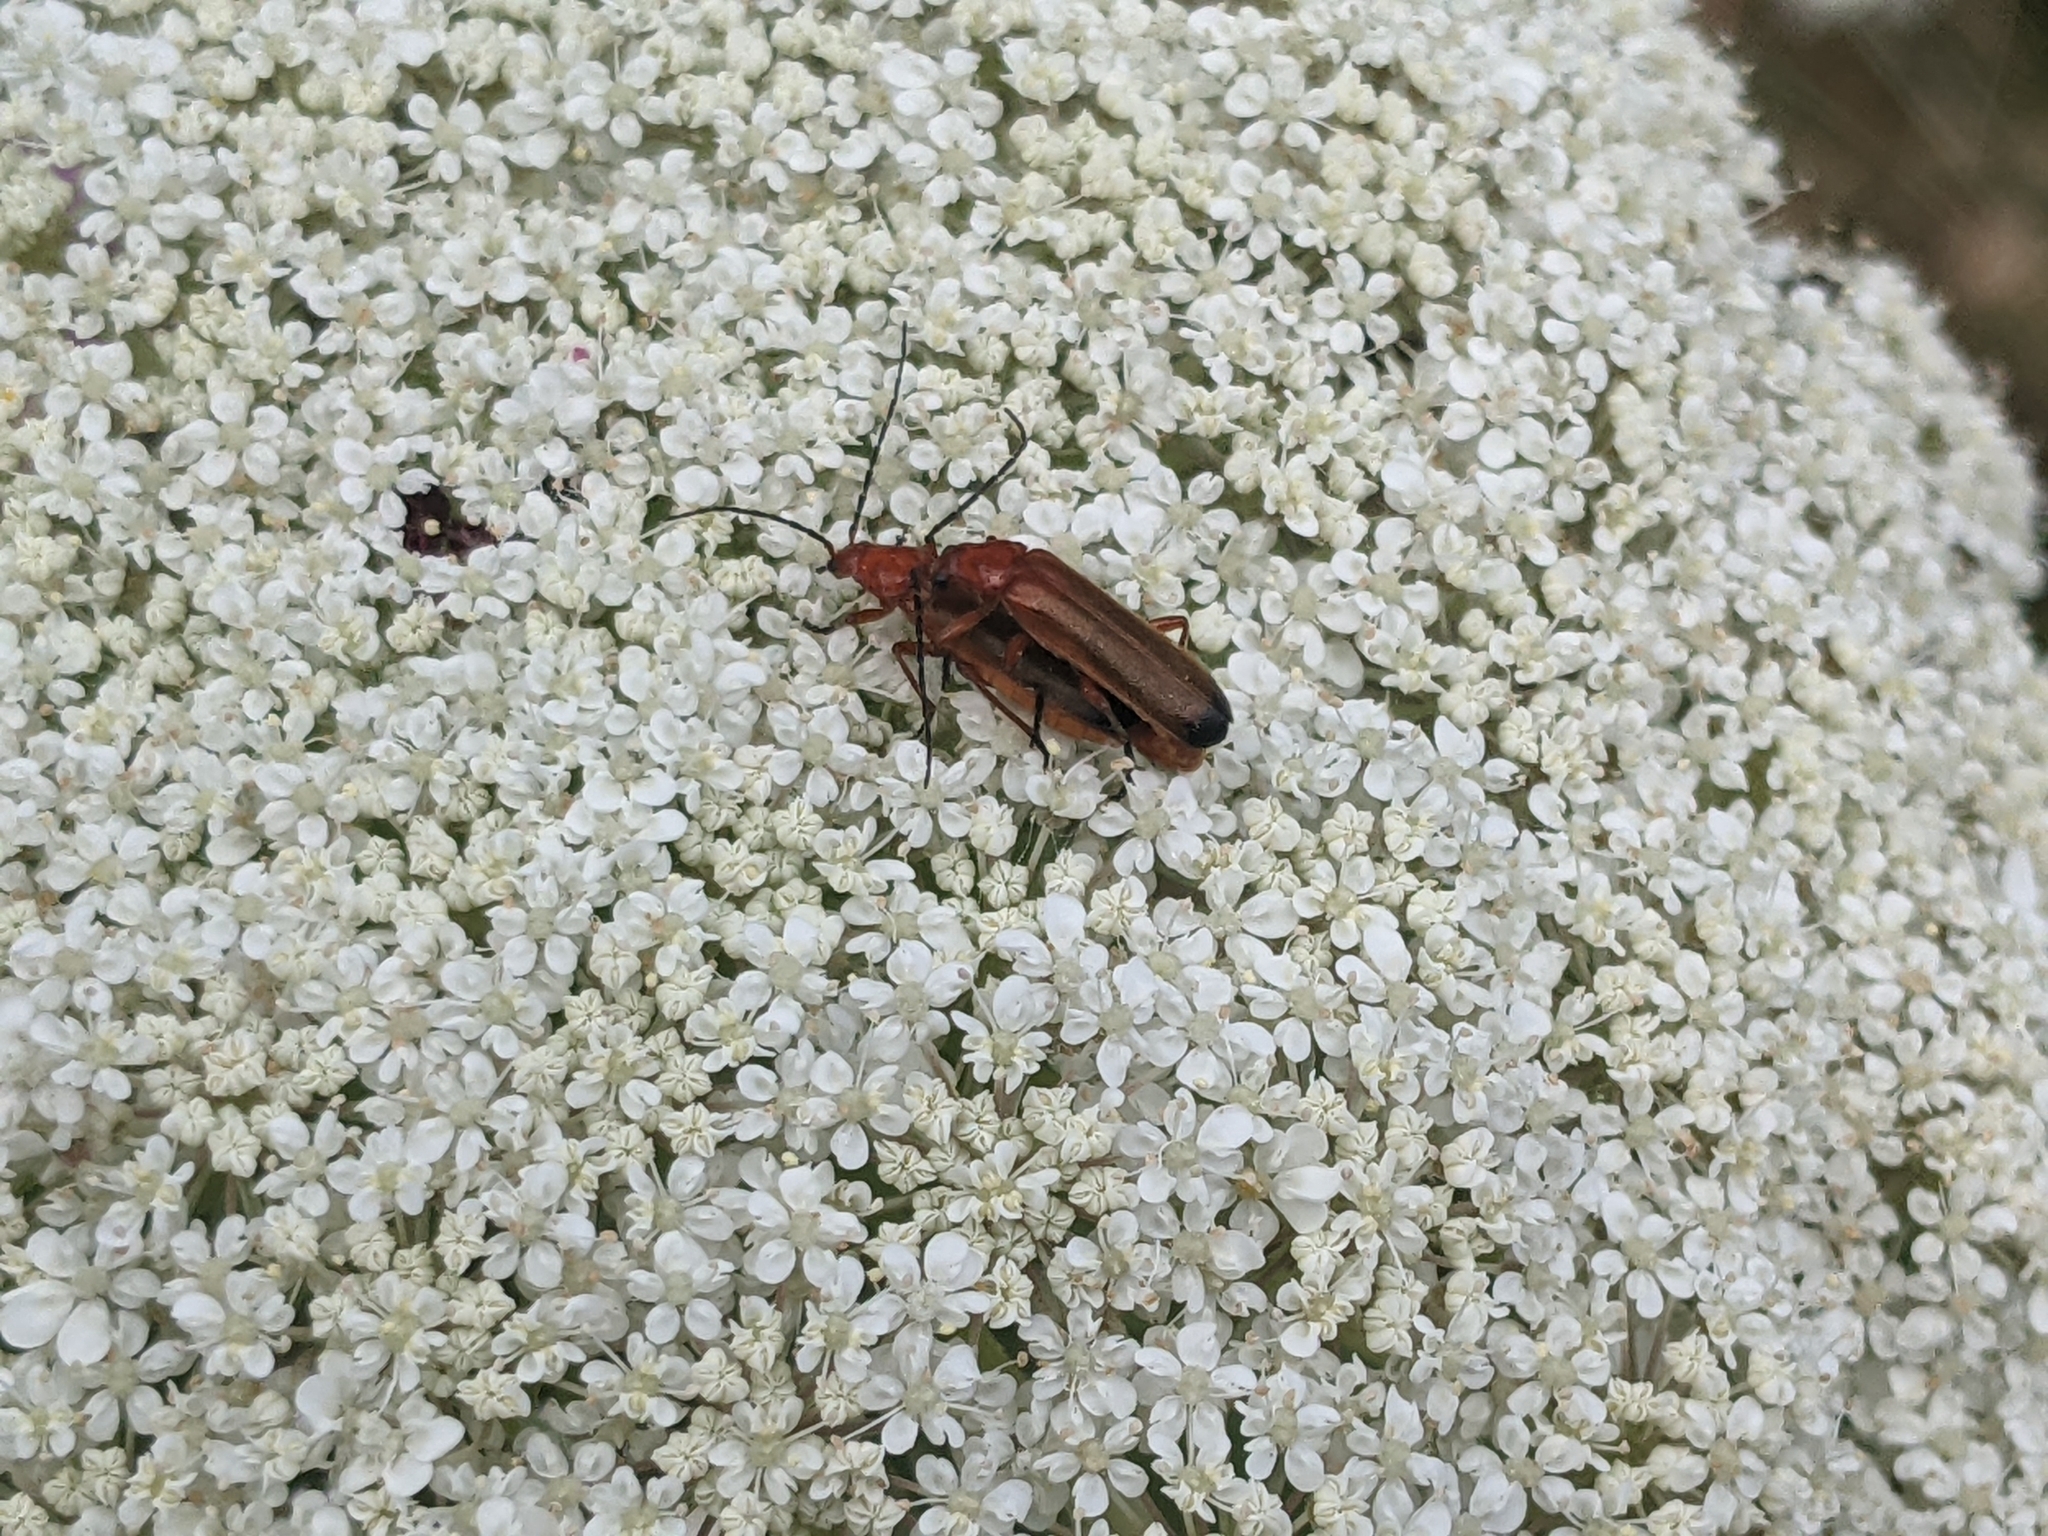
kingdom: Animalia
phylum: Arthropoda
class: Insecta
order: Coleoptera
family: Cantharidae
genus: Rhagonycha
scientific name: Rhagonycha fulva
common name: Common red soldier beetle
